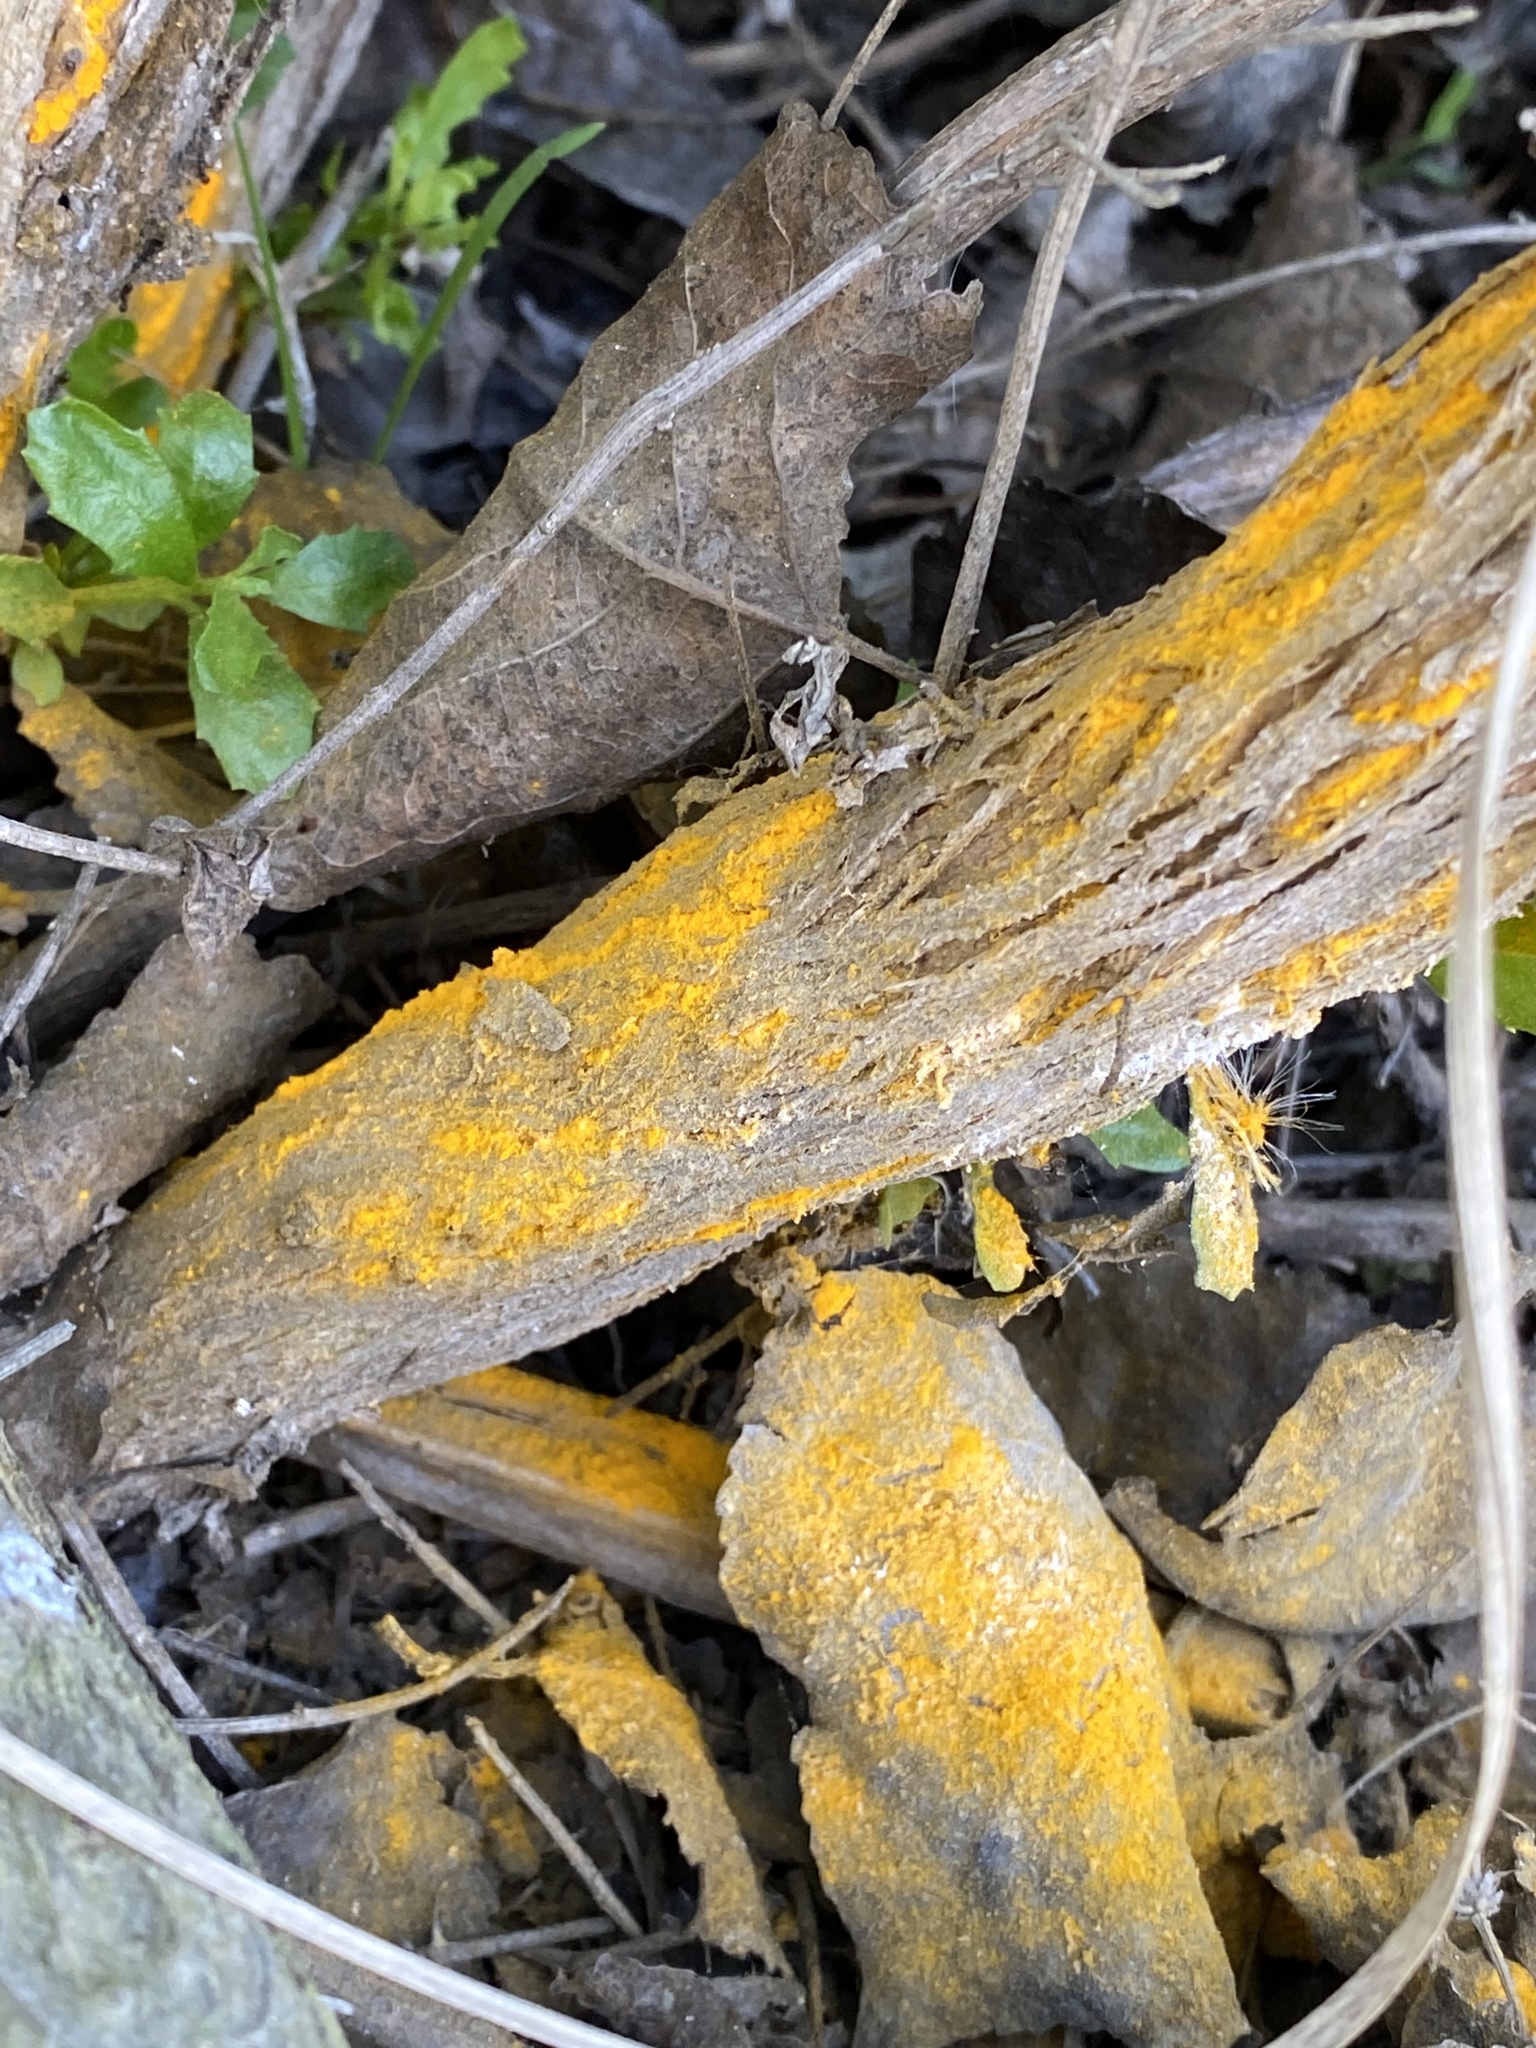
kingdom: Fungi
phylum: Basidiomycota
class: Pucciniomycetes
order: Pucciniales
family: Pucciniaceae
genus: Eriosporangium
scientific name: Eriosporangium evadens
